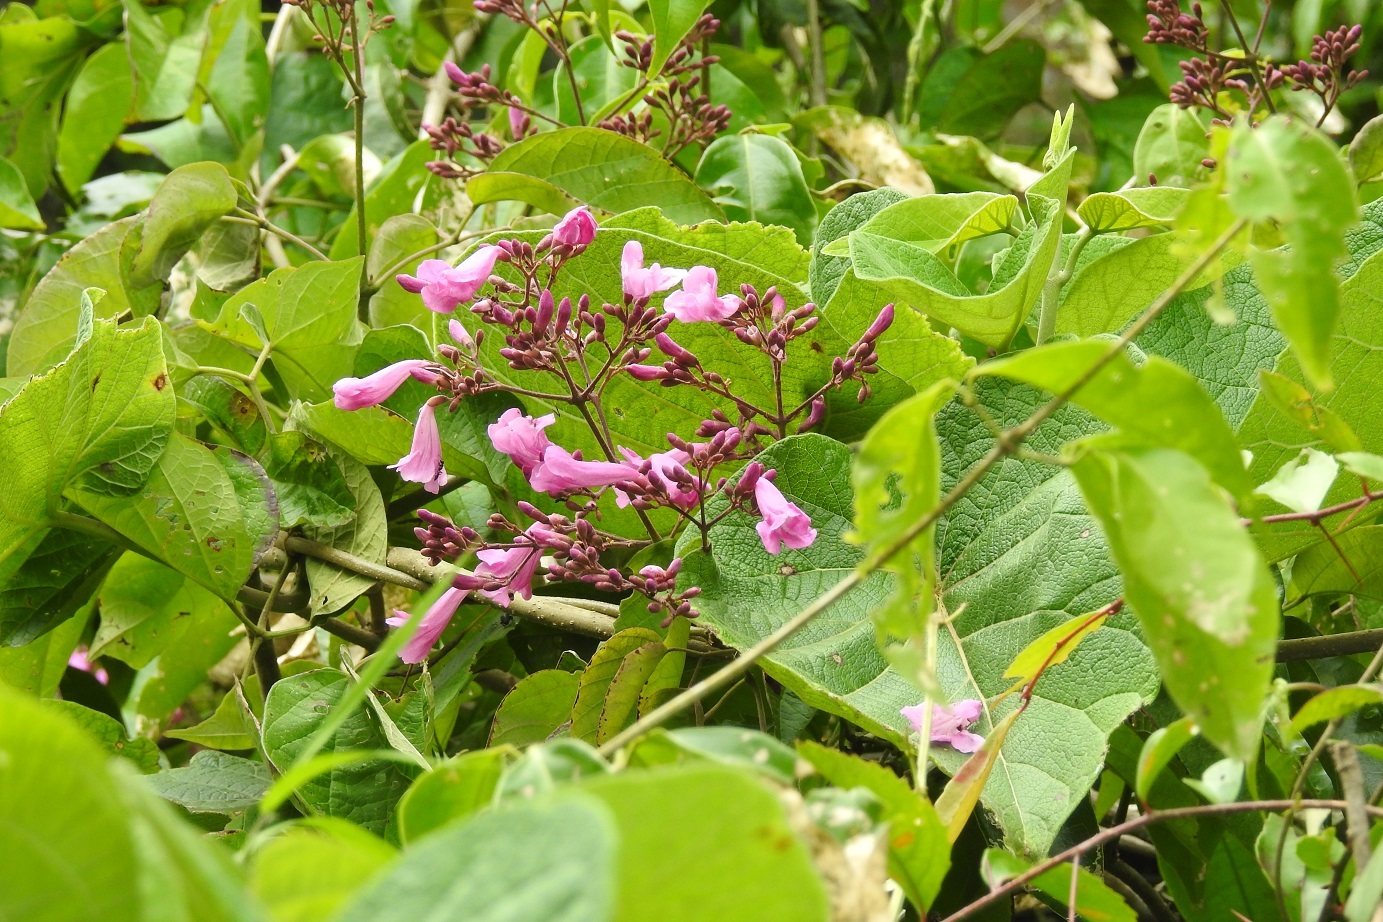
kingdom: Plantae
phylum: Tracheophyta
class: Magnoliopsida
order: Lamiales
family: Bignoniaceae
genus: Fridericia
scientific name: Fridericia chica
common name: Cricketvine
